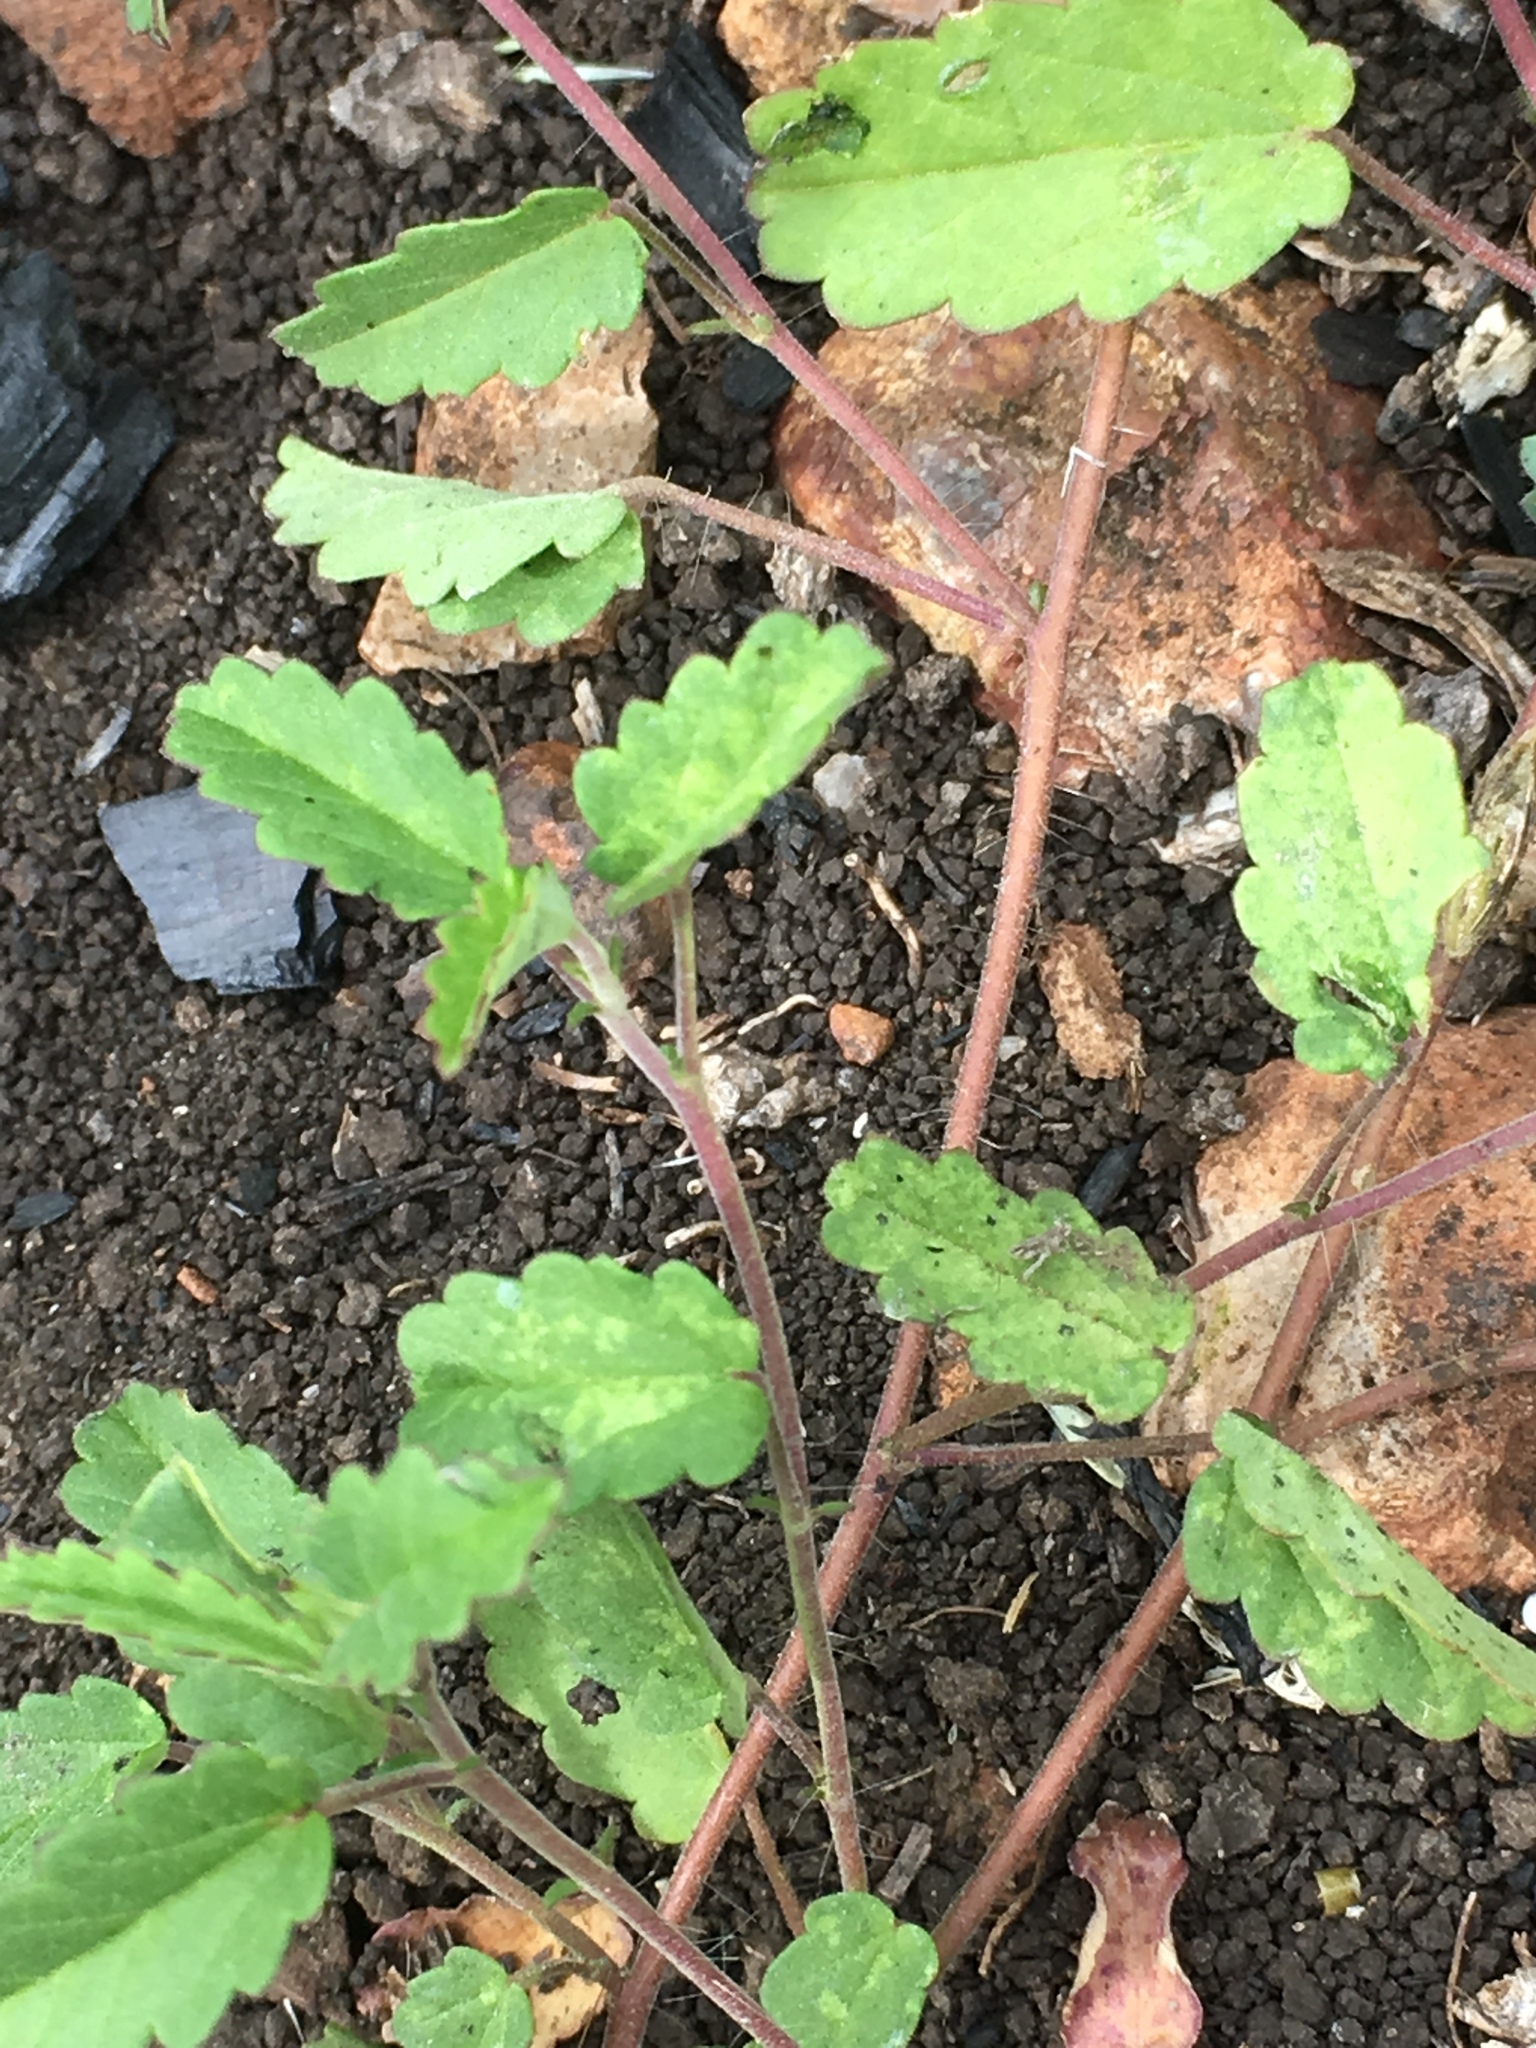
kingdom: Plantae
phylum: Tracheophyta
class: Magnoliopsida
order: Malvales
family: Malvaceae
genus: Sida
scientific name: Sida abutilifolia
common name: Spreading fanpetals
